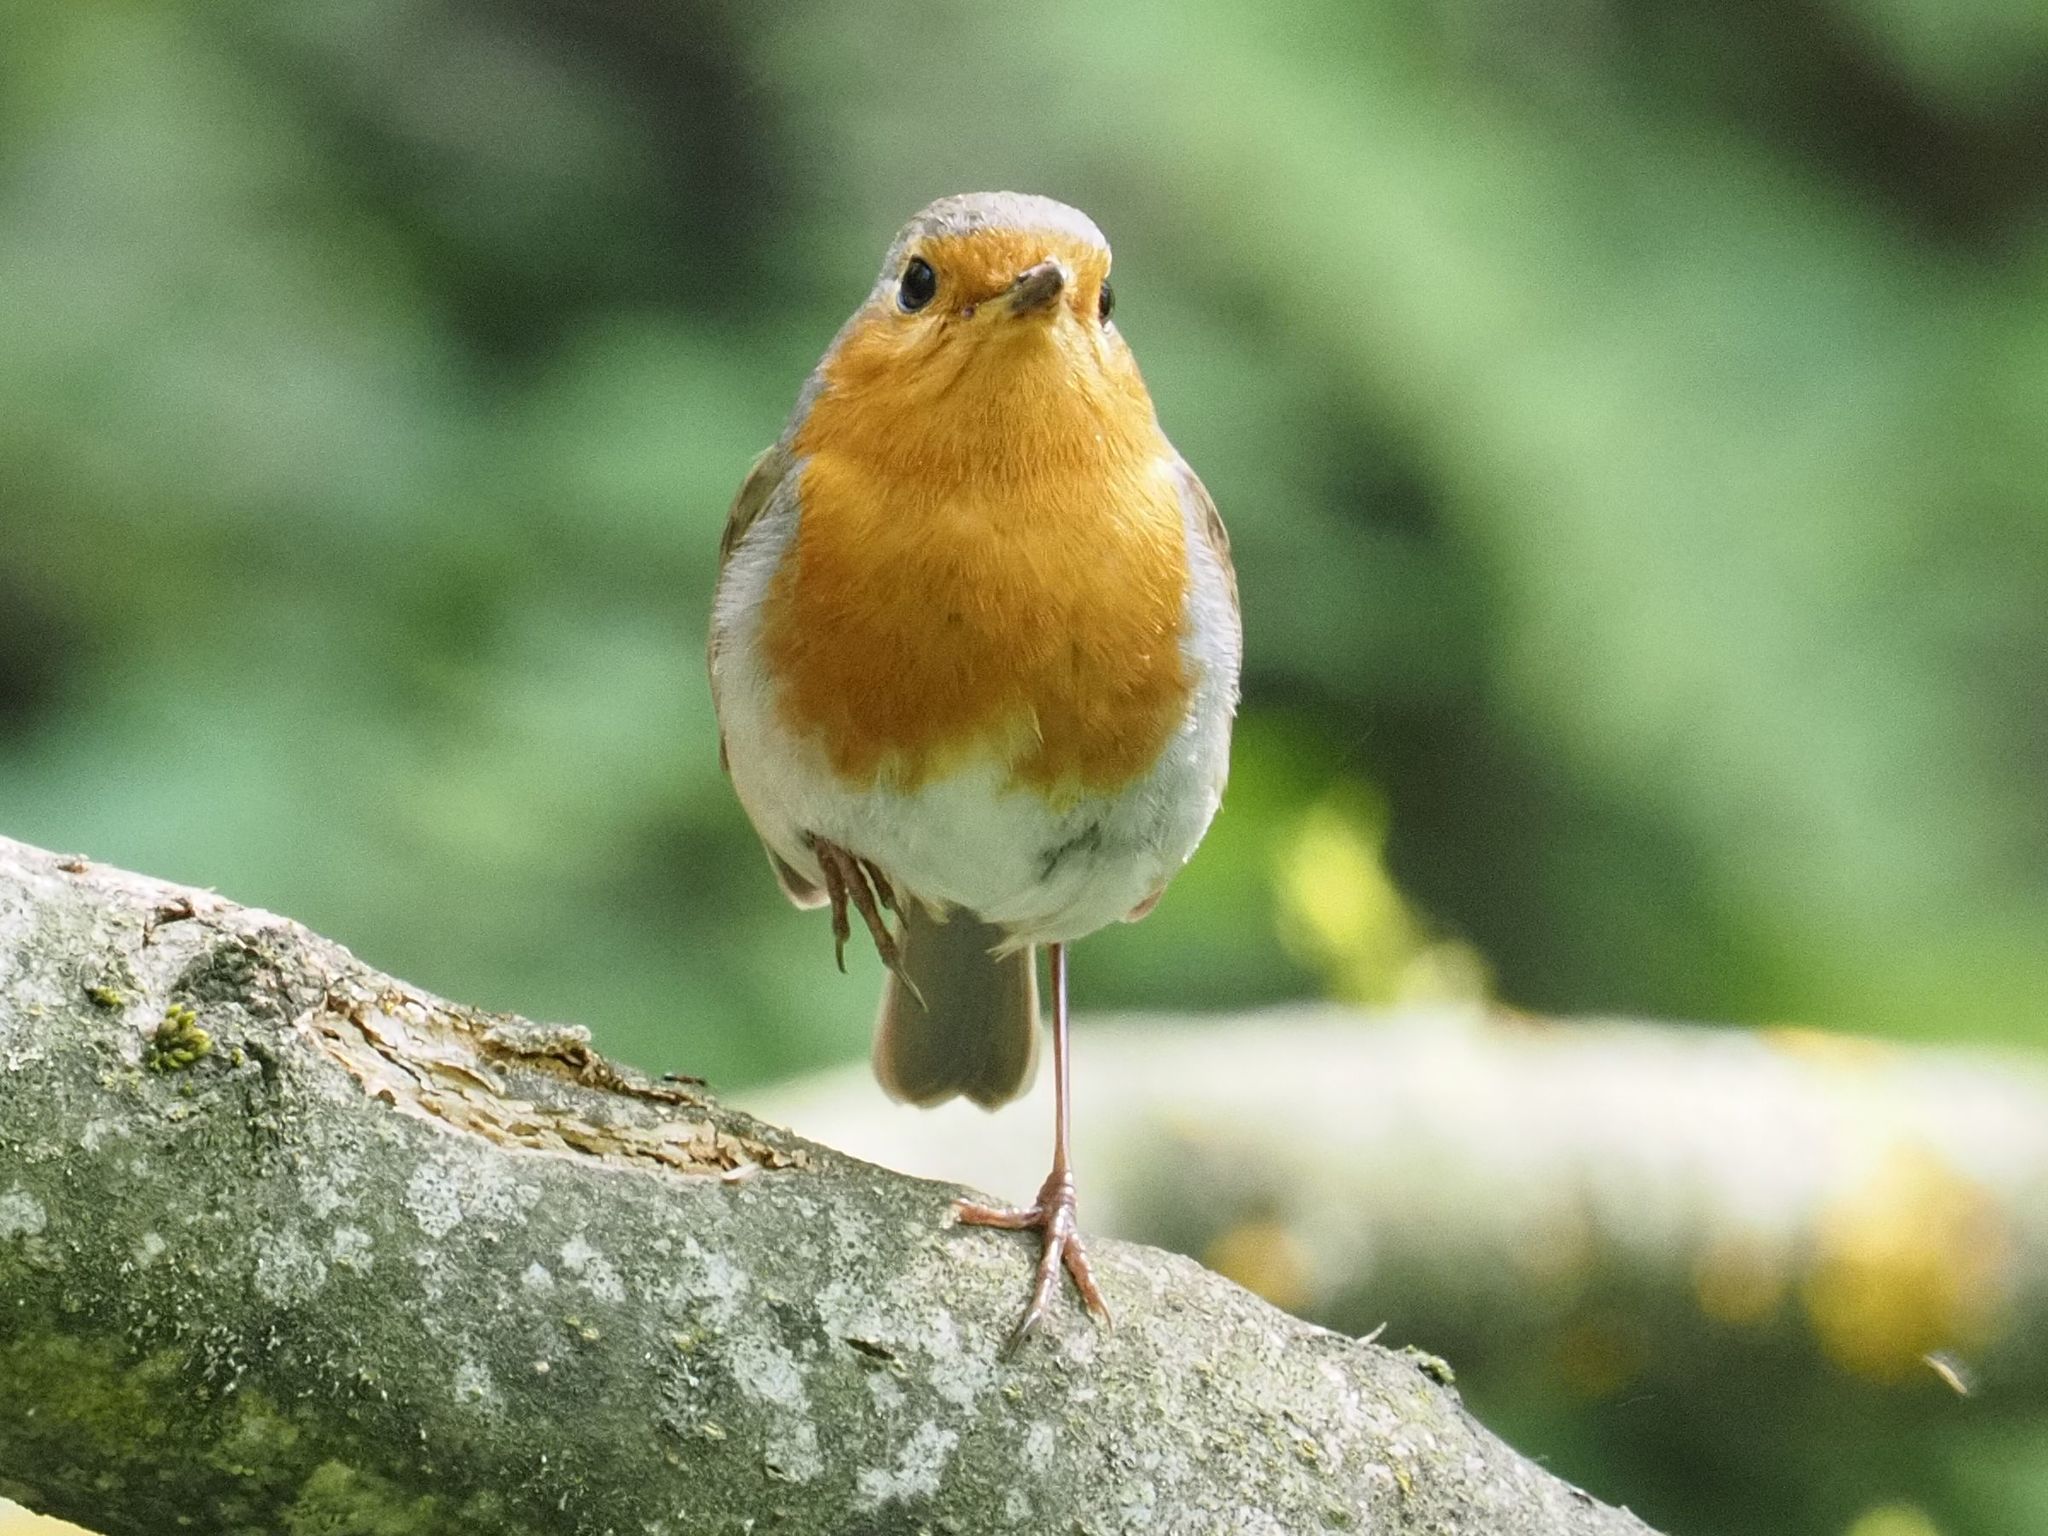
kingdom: Animalia
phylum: Chordata
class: Aves
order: Passeriformes
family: Muscicapidae
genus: Erithacus
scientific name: Erithacus rubecula
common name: European robin
